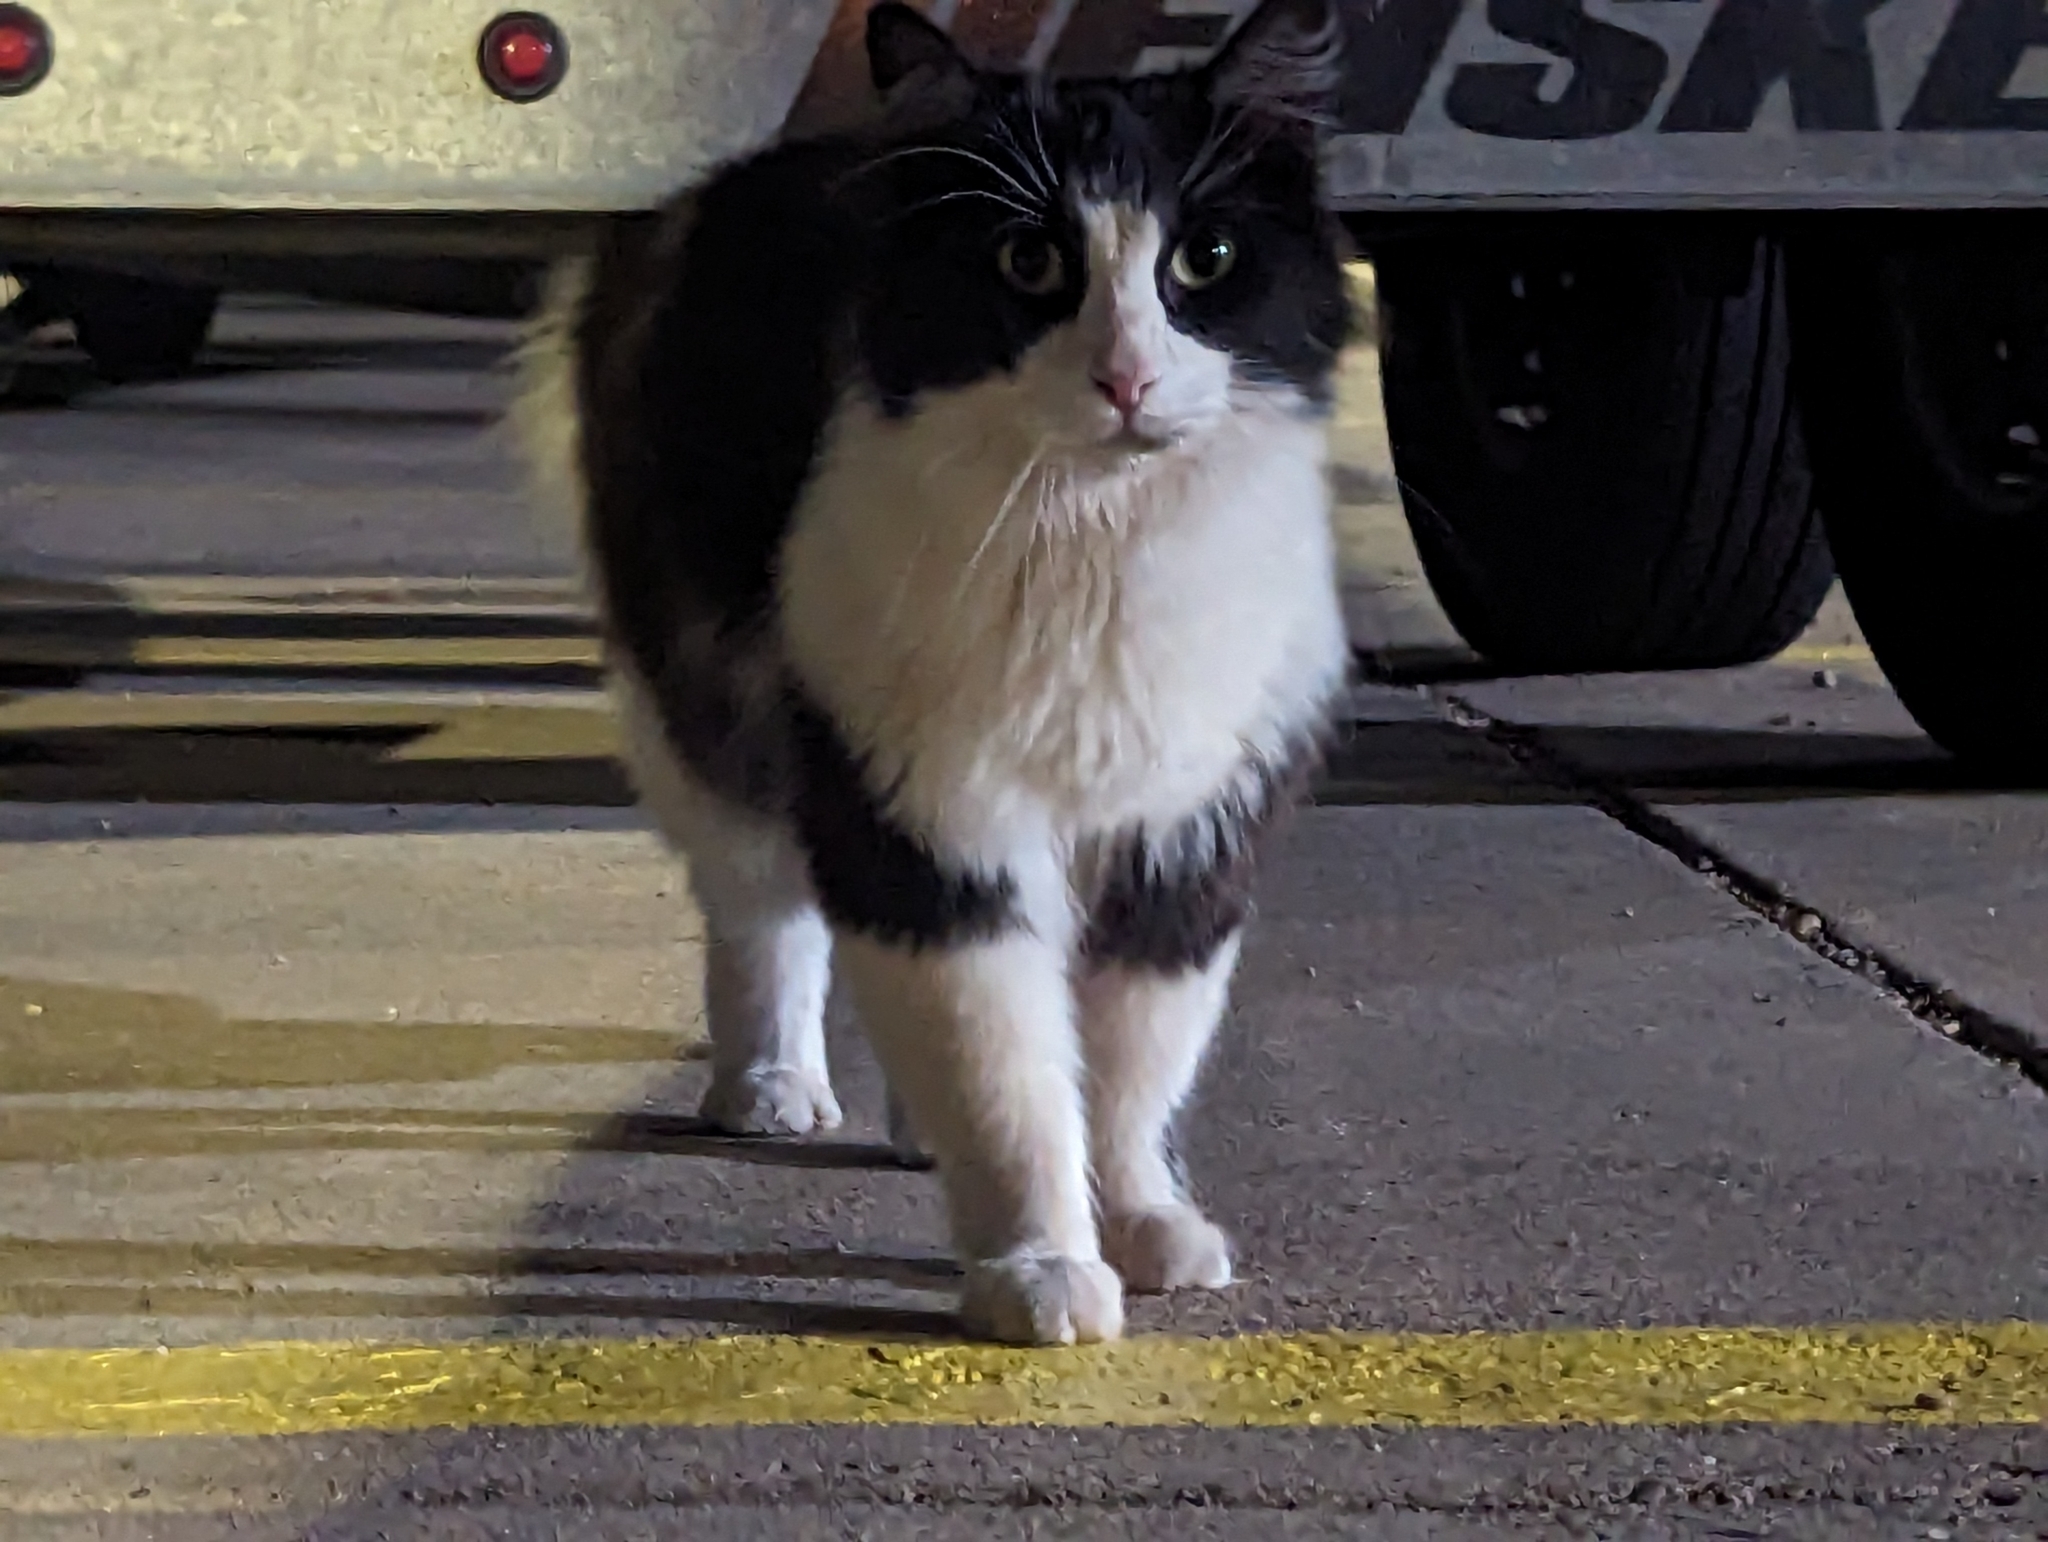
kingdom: Animalia
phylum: Chordata
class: Mammalia
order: Carnivora
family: Felidae
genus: Felis
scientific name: Felis catus
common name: Domestic cat
